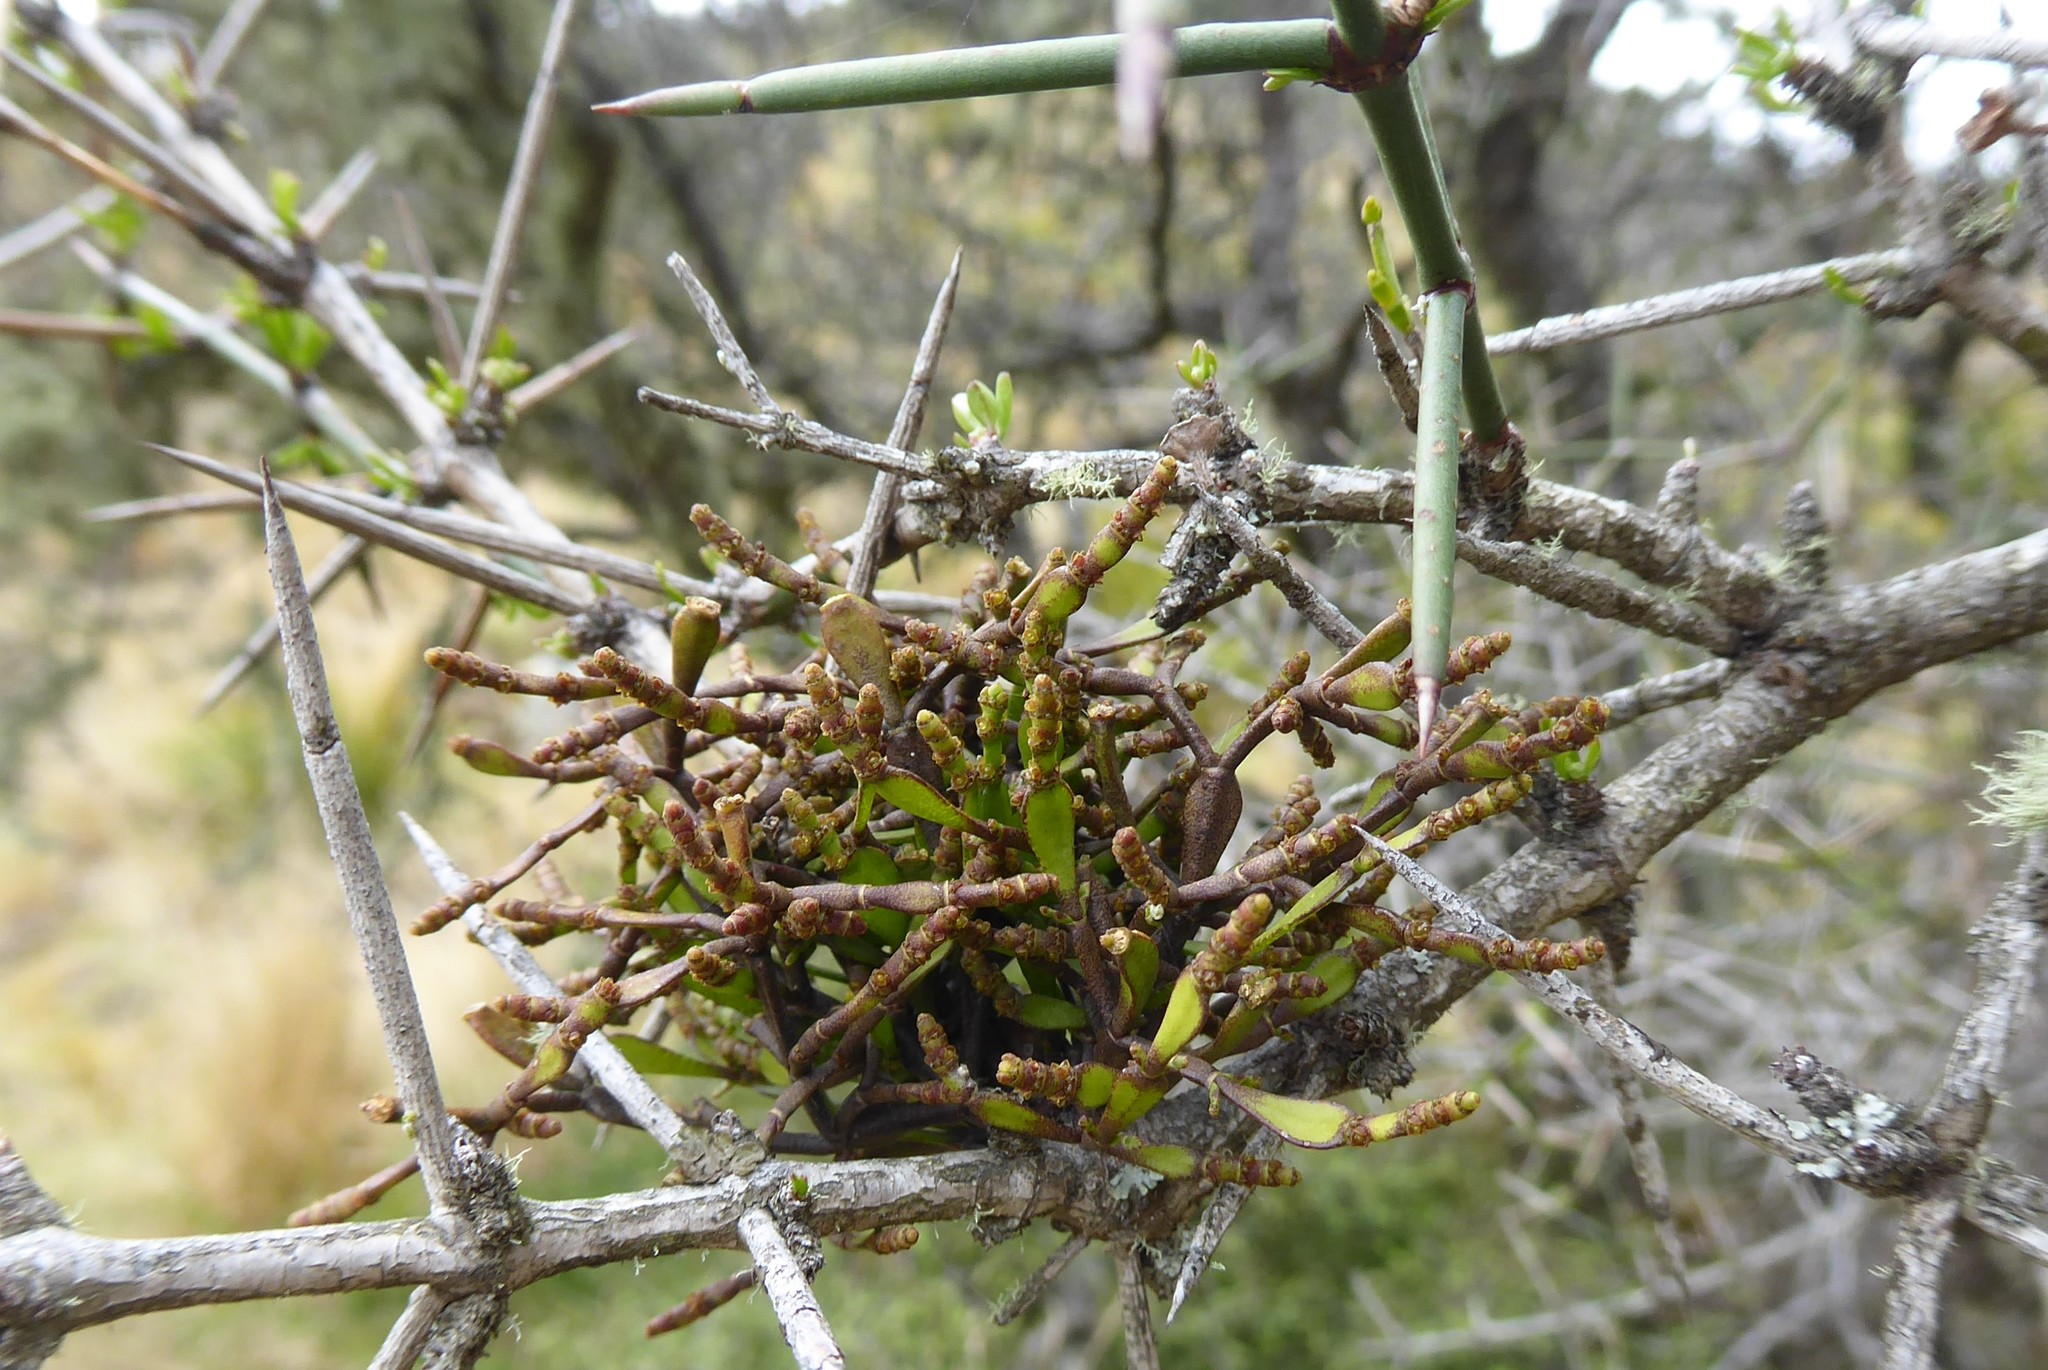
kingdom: Plantae
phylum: Tracheophyta
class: Magnoliopsida
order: Santalales
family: Viscaceae
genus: Korthalsella
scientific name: Korthalsella clavata
